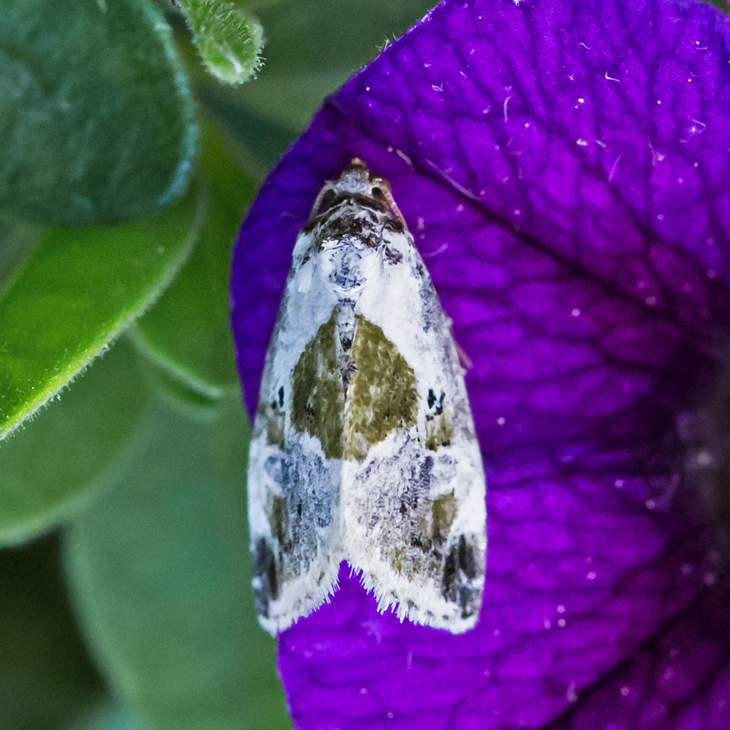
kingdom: Animalia
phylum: Arthropoda
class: Insecta
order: Lepidoptera
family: Noctuidae
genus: Maliattha
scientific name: Maliattha synochitis
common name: Black-dotted glyph
